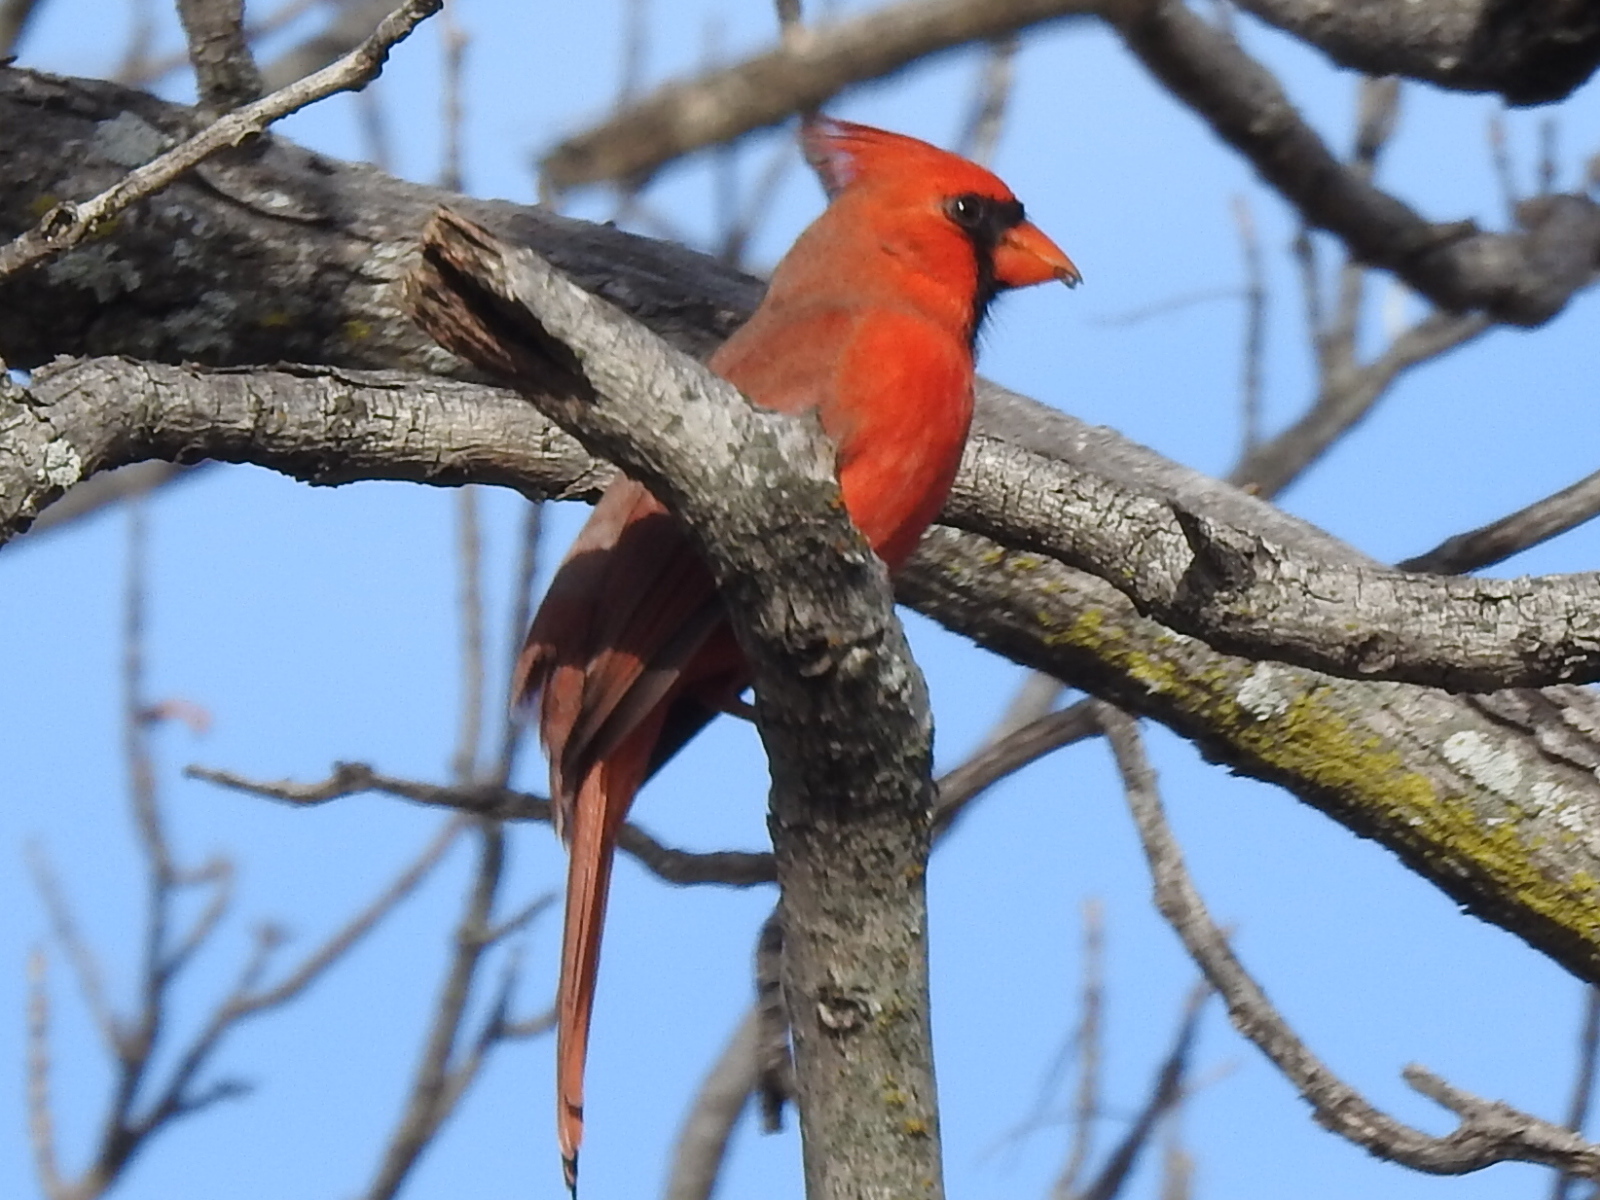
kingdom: Animalia
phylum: Chordata
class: Aves
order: Passeriformes
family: Cardinalidae
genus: Cardinalis
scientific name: Cardinalis cardinalis
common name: Northern cardinal
